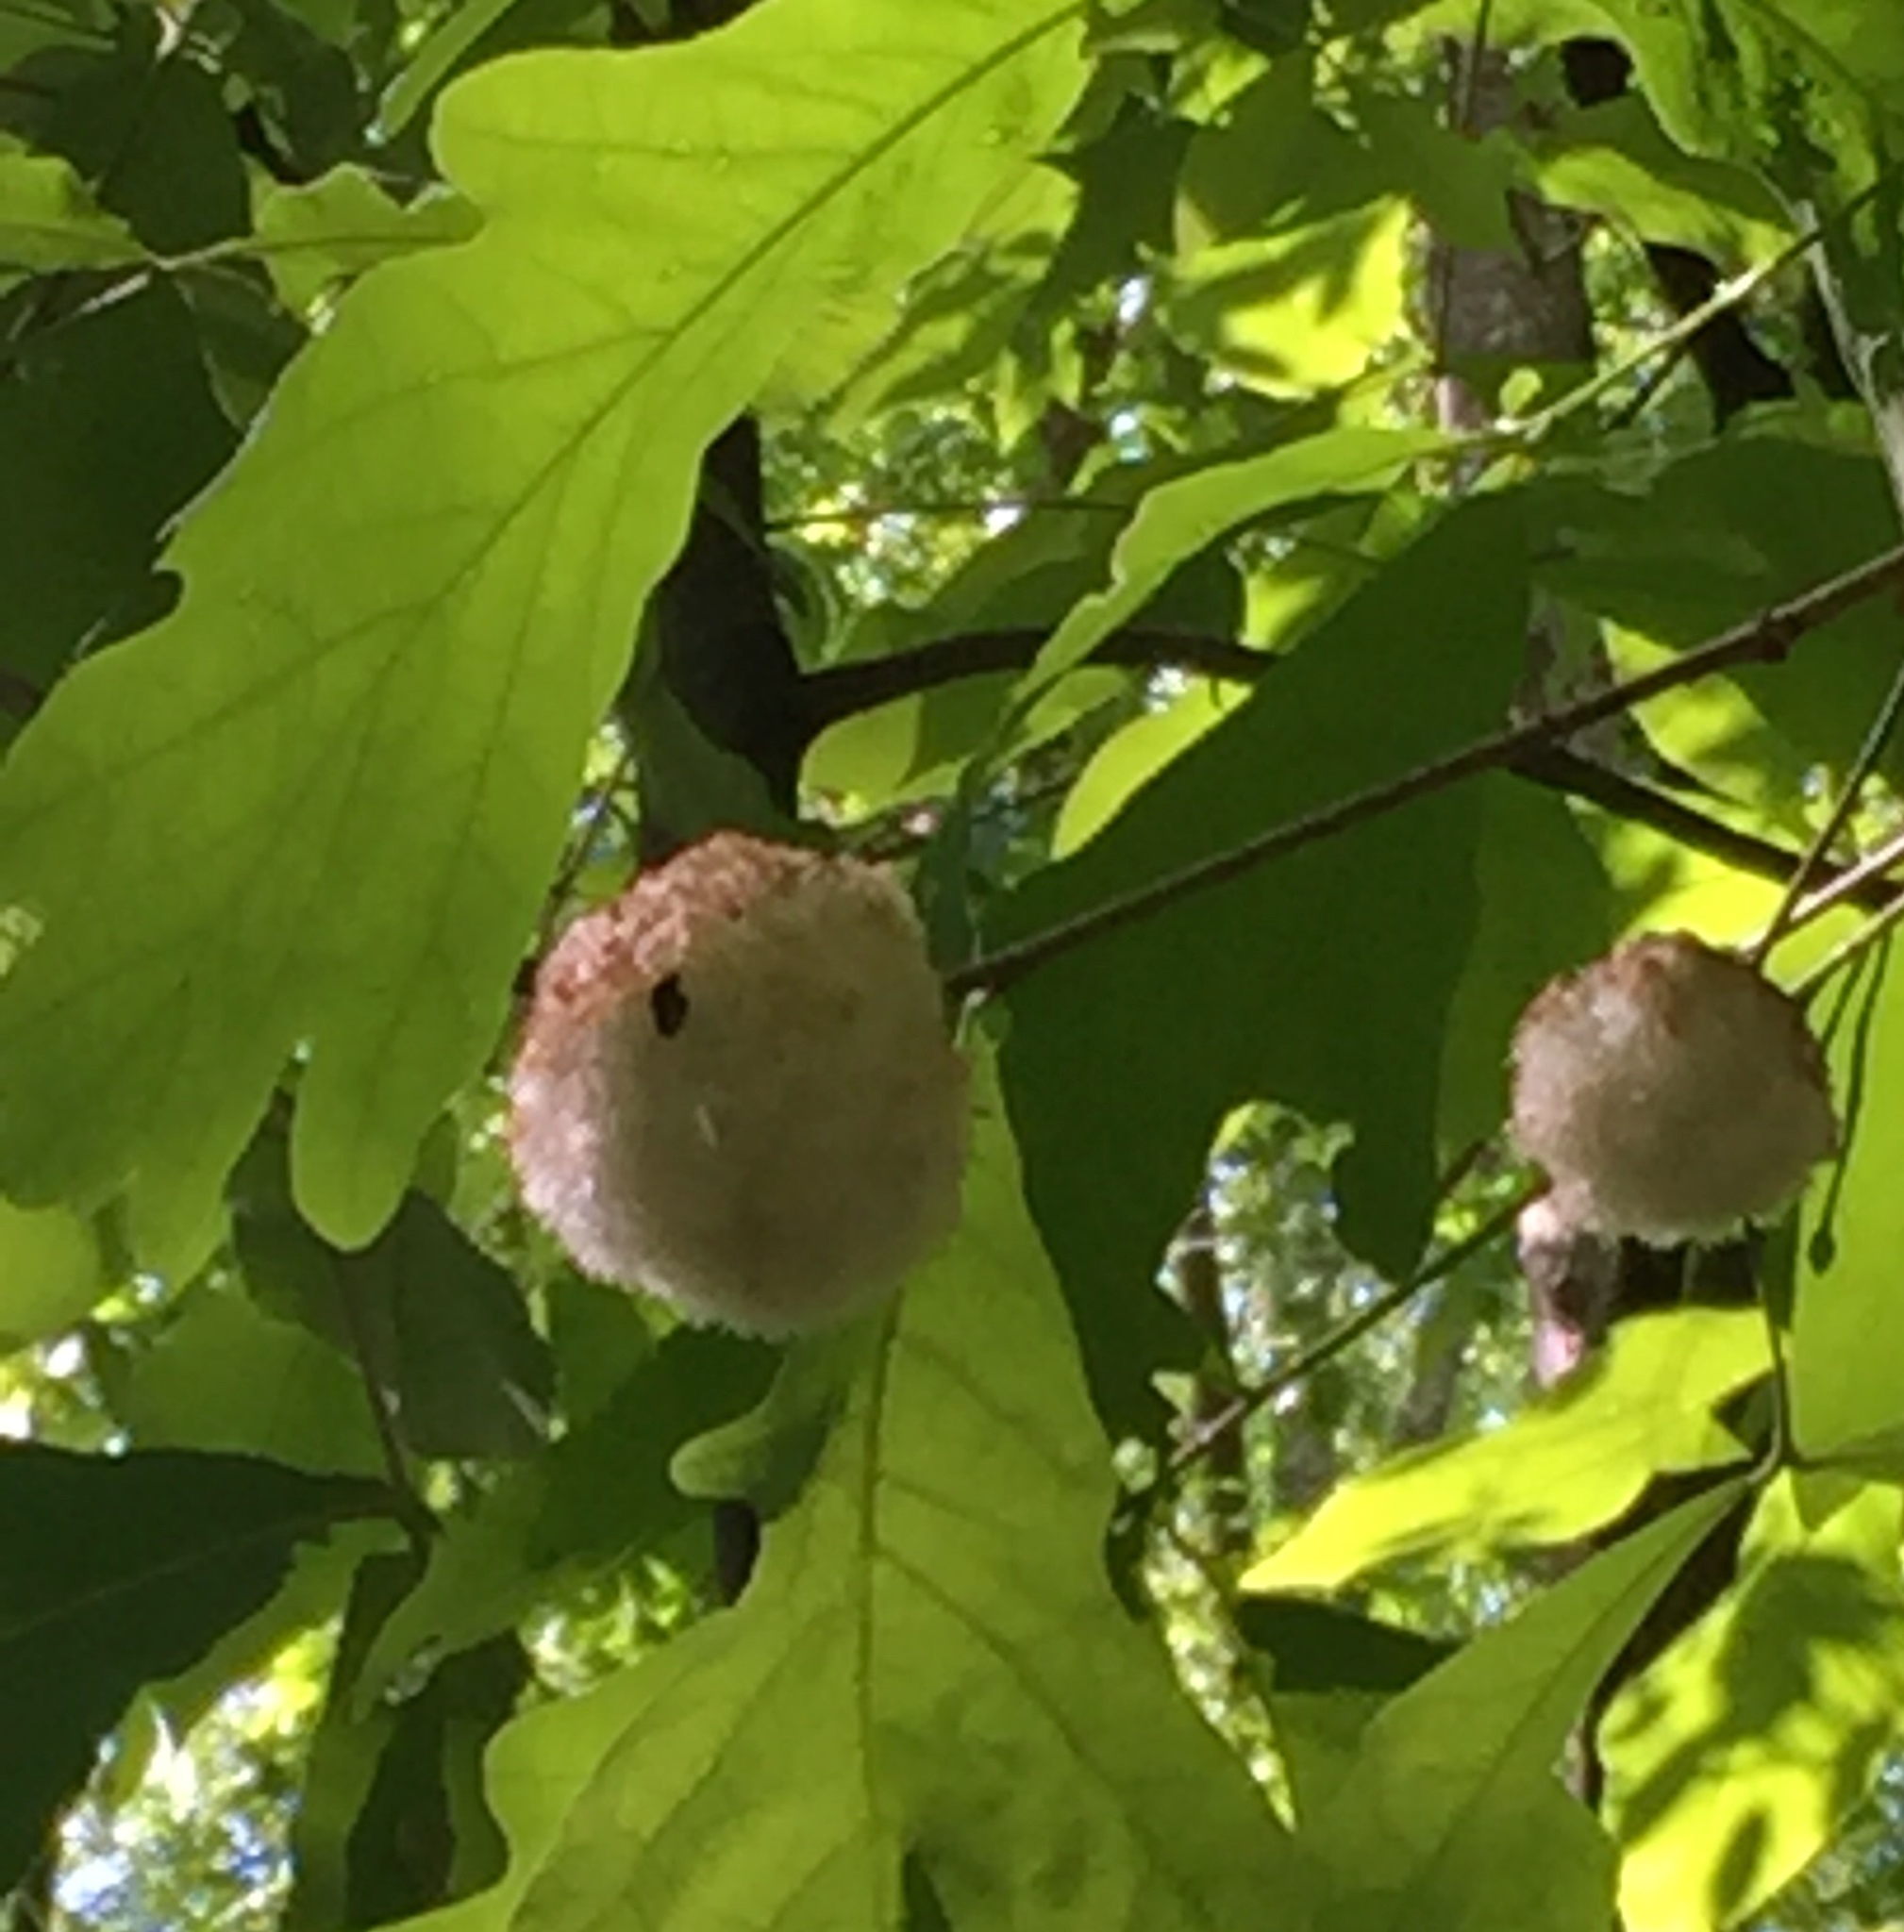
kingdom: Animalia
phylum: Arthropoda
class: Insecta
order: Hymenoptera
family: Cynipidae
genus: Callirhytis
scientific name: Callirhytis
